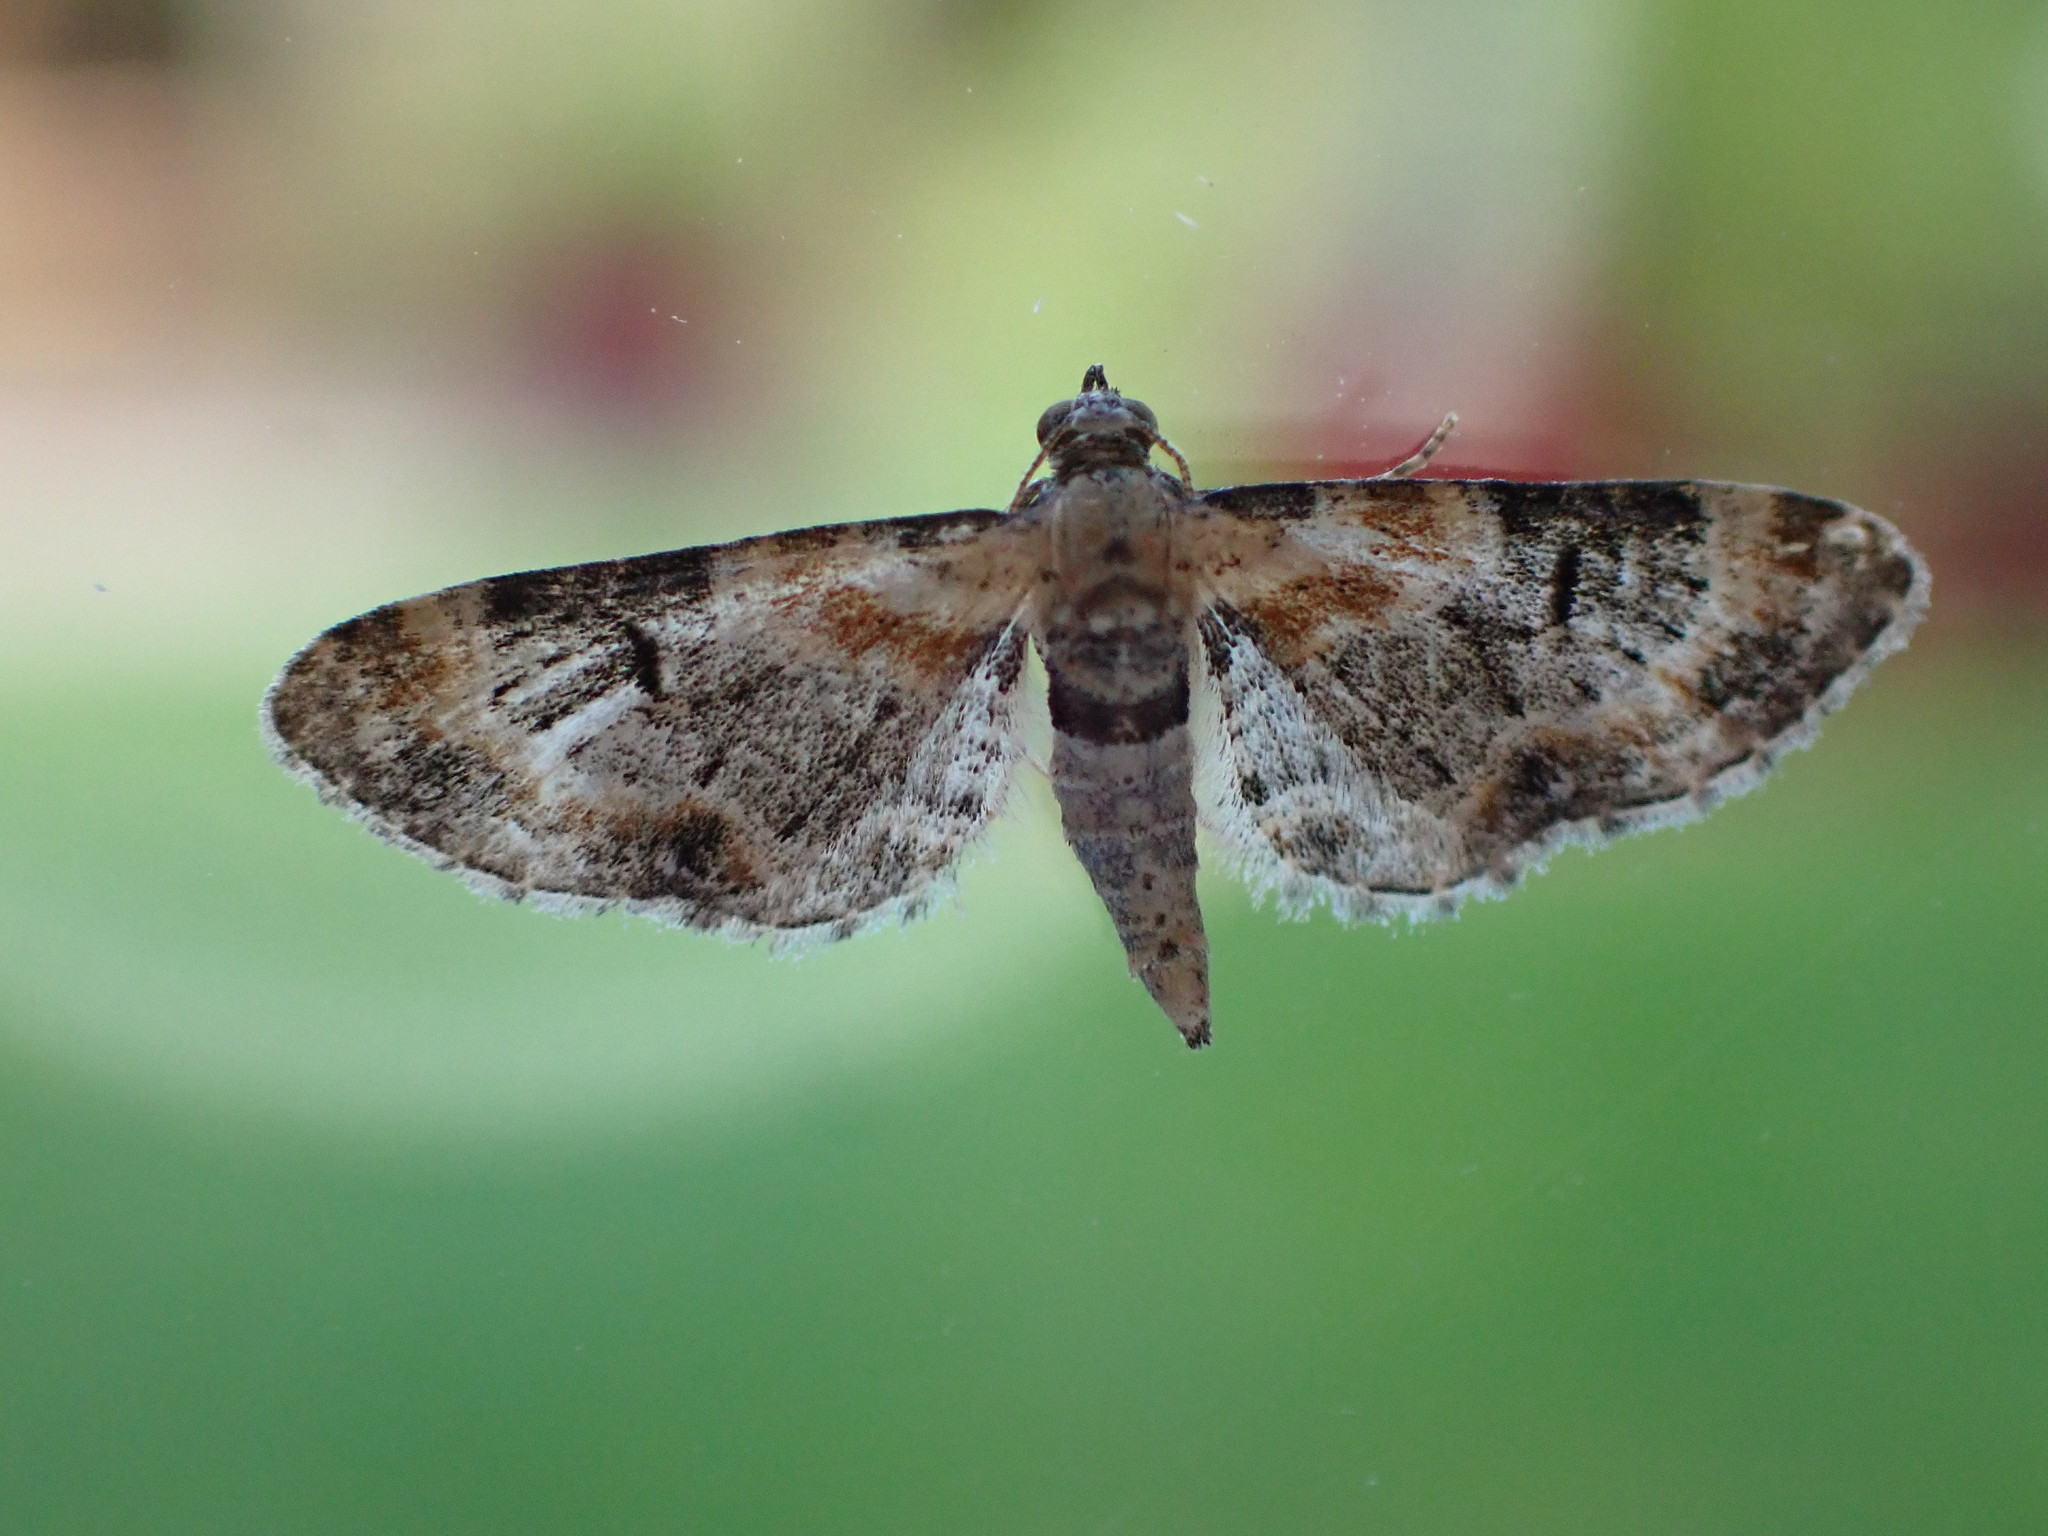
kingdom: Animalia
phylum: Arthropoda
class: Insecta
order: Lepidoptera
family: Geometridae
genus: Eupithecia
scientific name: Eupithecia pulchellata
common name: Foxglove pug
